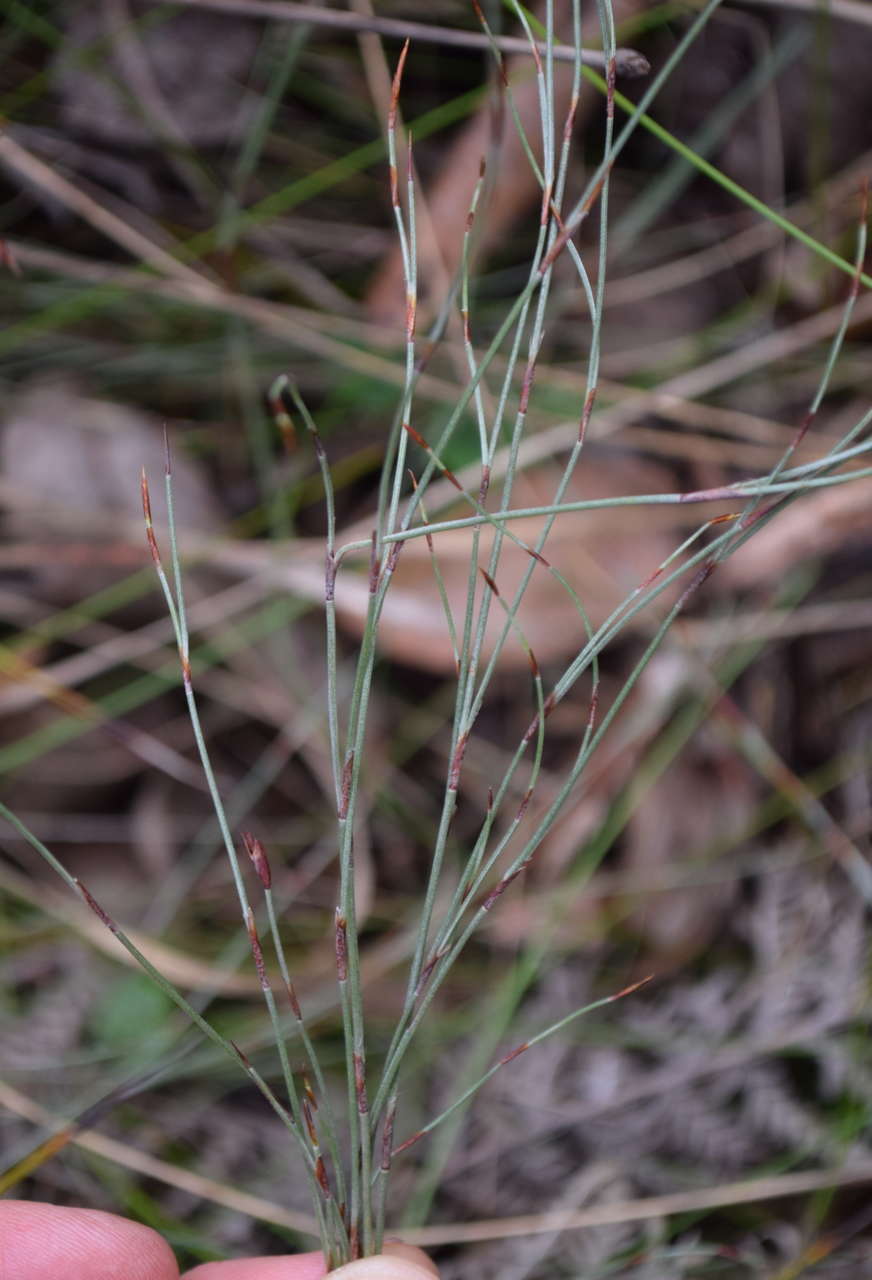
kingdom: Plantae
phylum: Tracheophyta
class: Liliopsida
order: Poales
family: Restionaceae
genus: Hypolaena
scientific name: Hypolaena fastigiata
